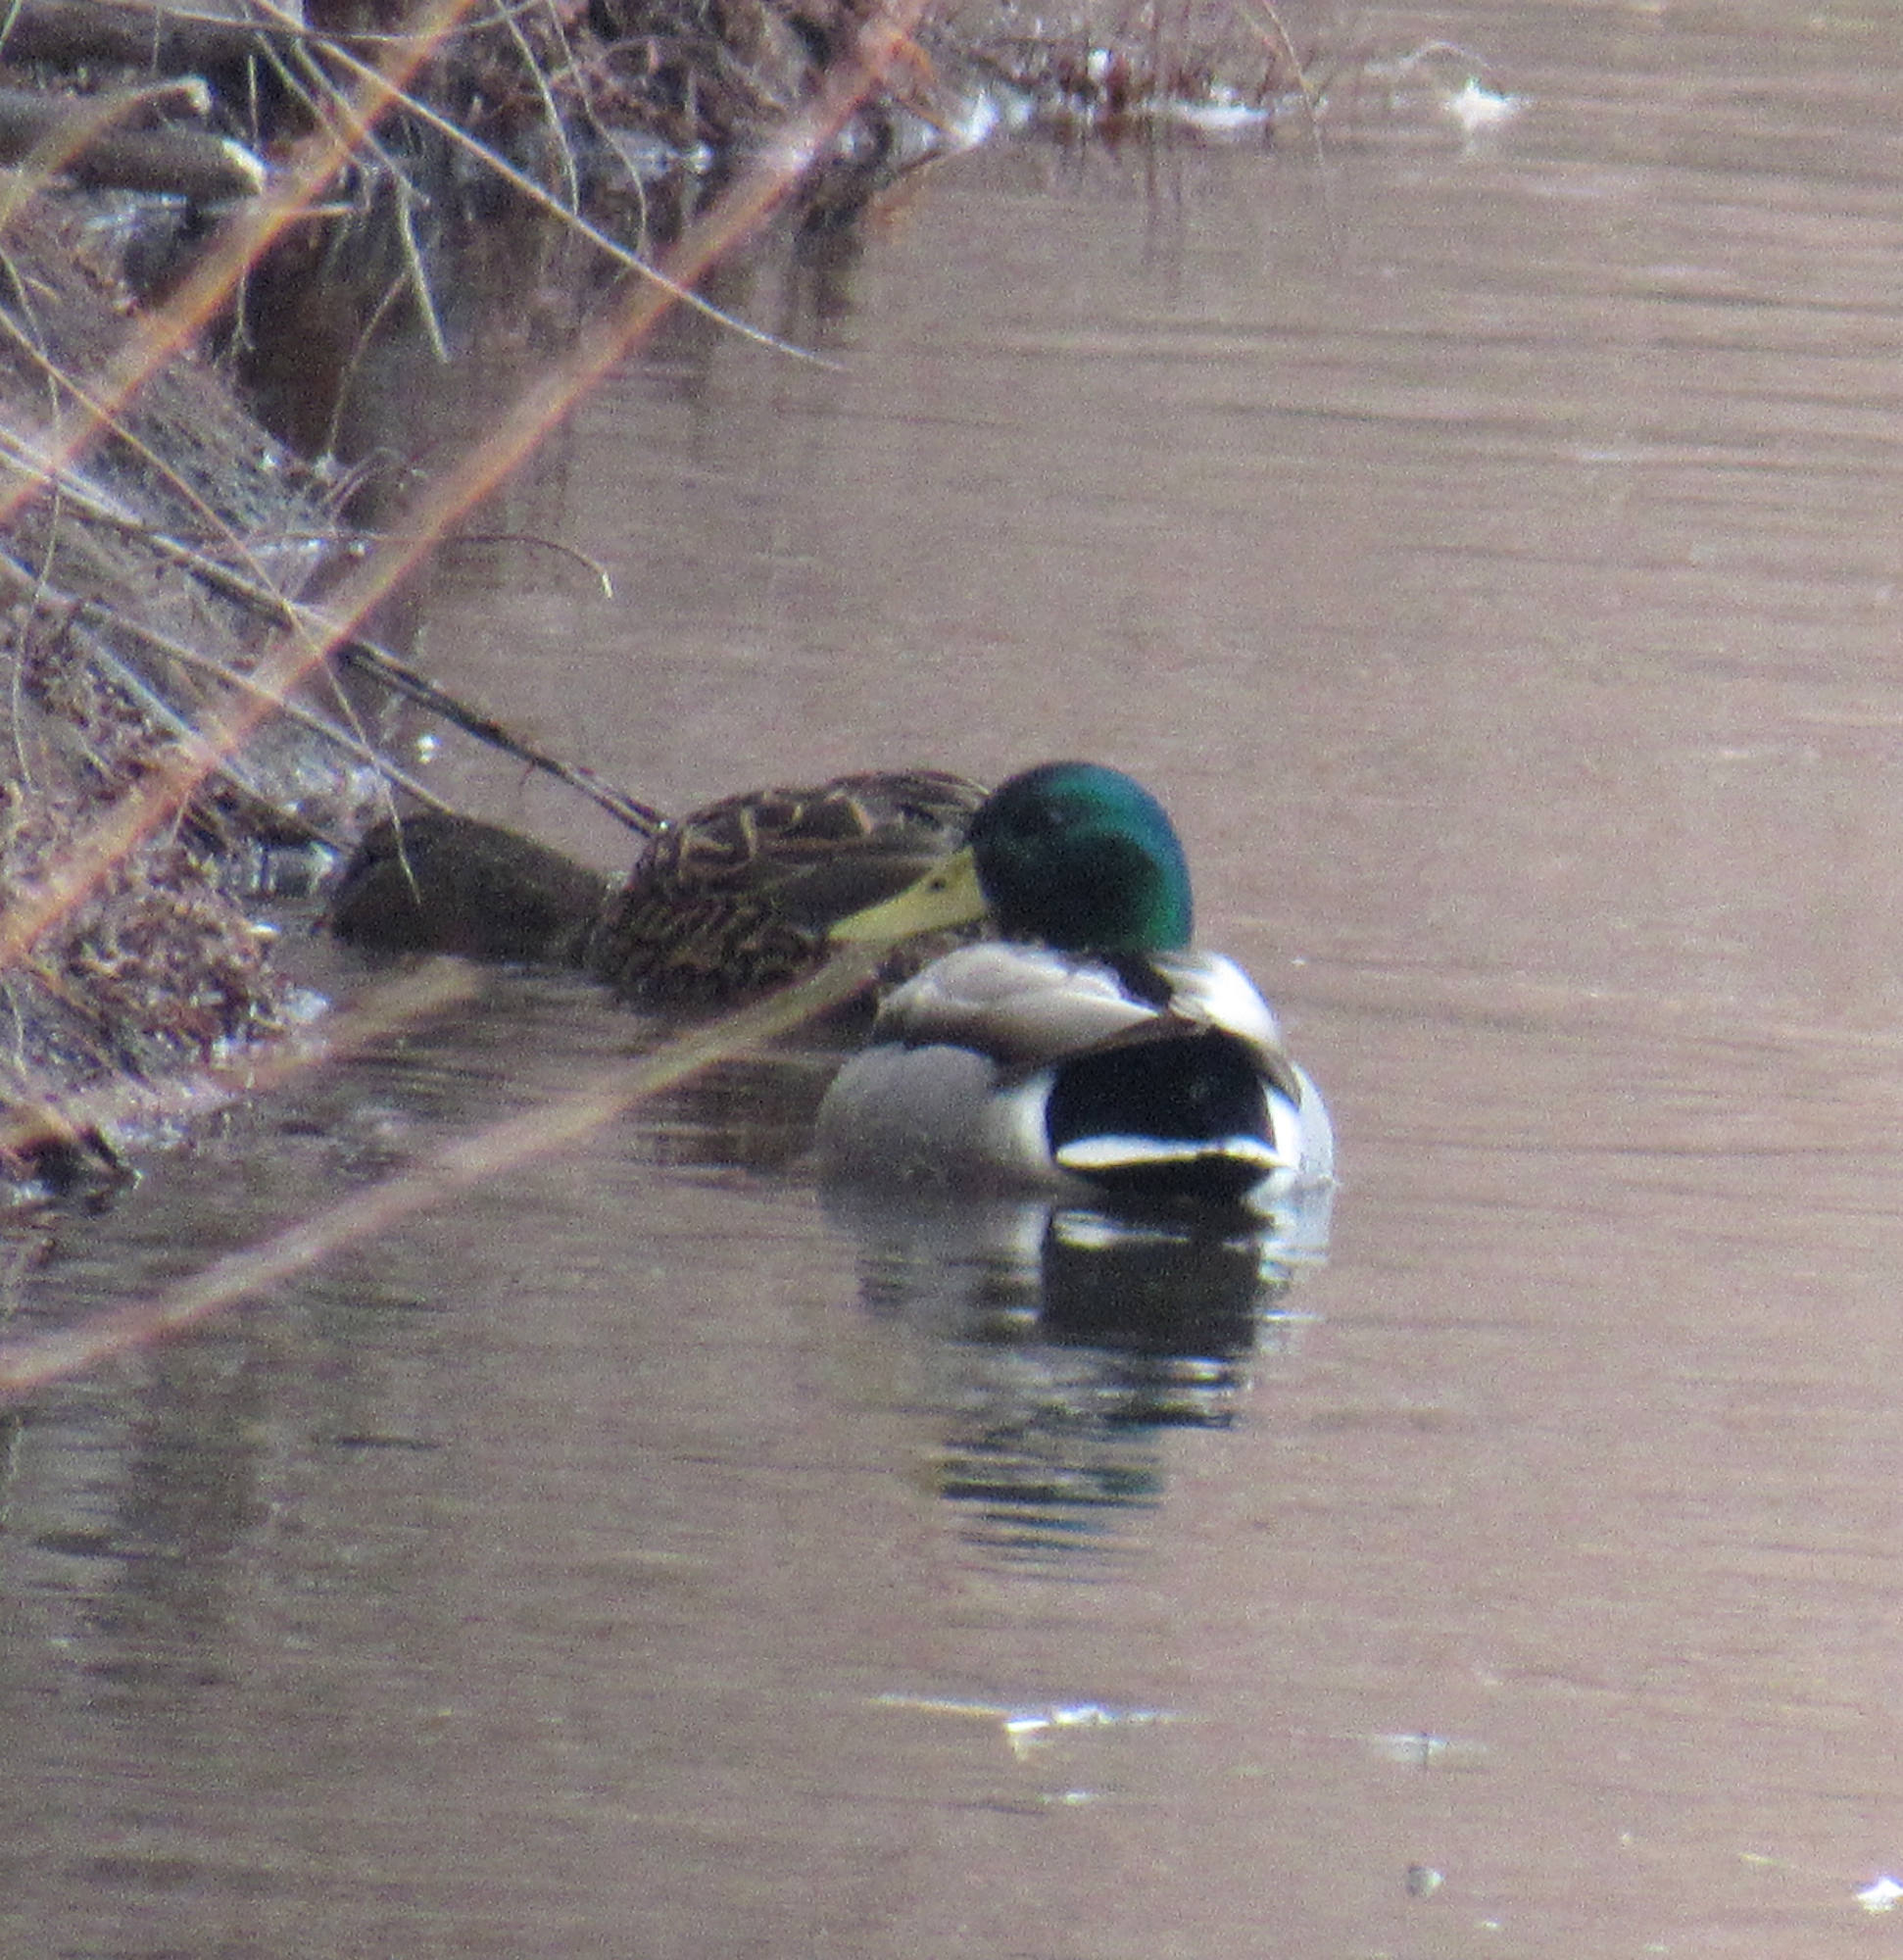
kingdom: Animalia
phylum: Chordata
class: Aves
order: Anseriformes
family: Anatidae
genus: Anas
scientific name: Anas platyrhynchos
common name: Mallard
